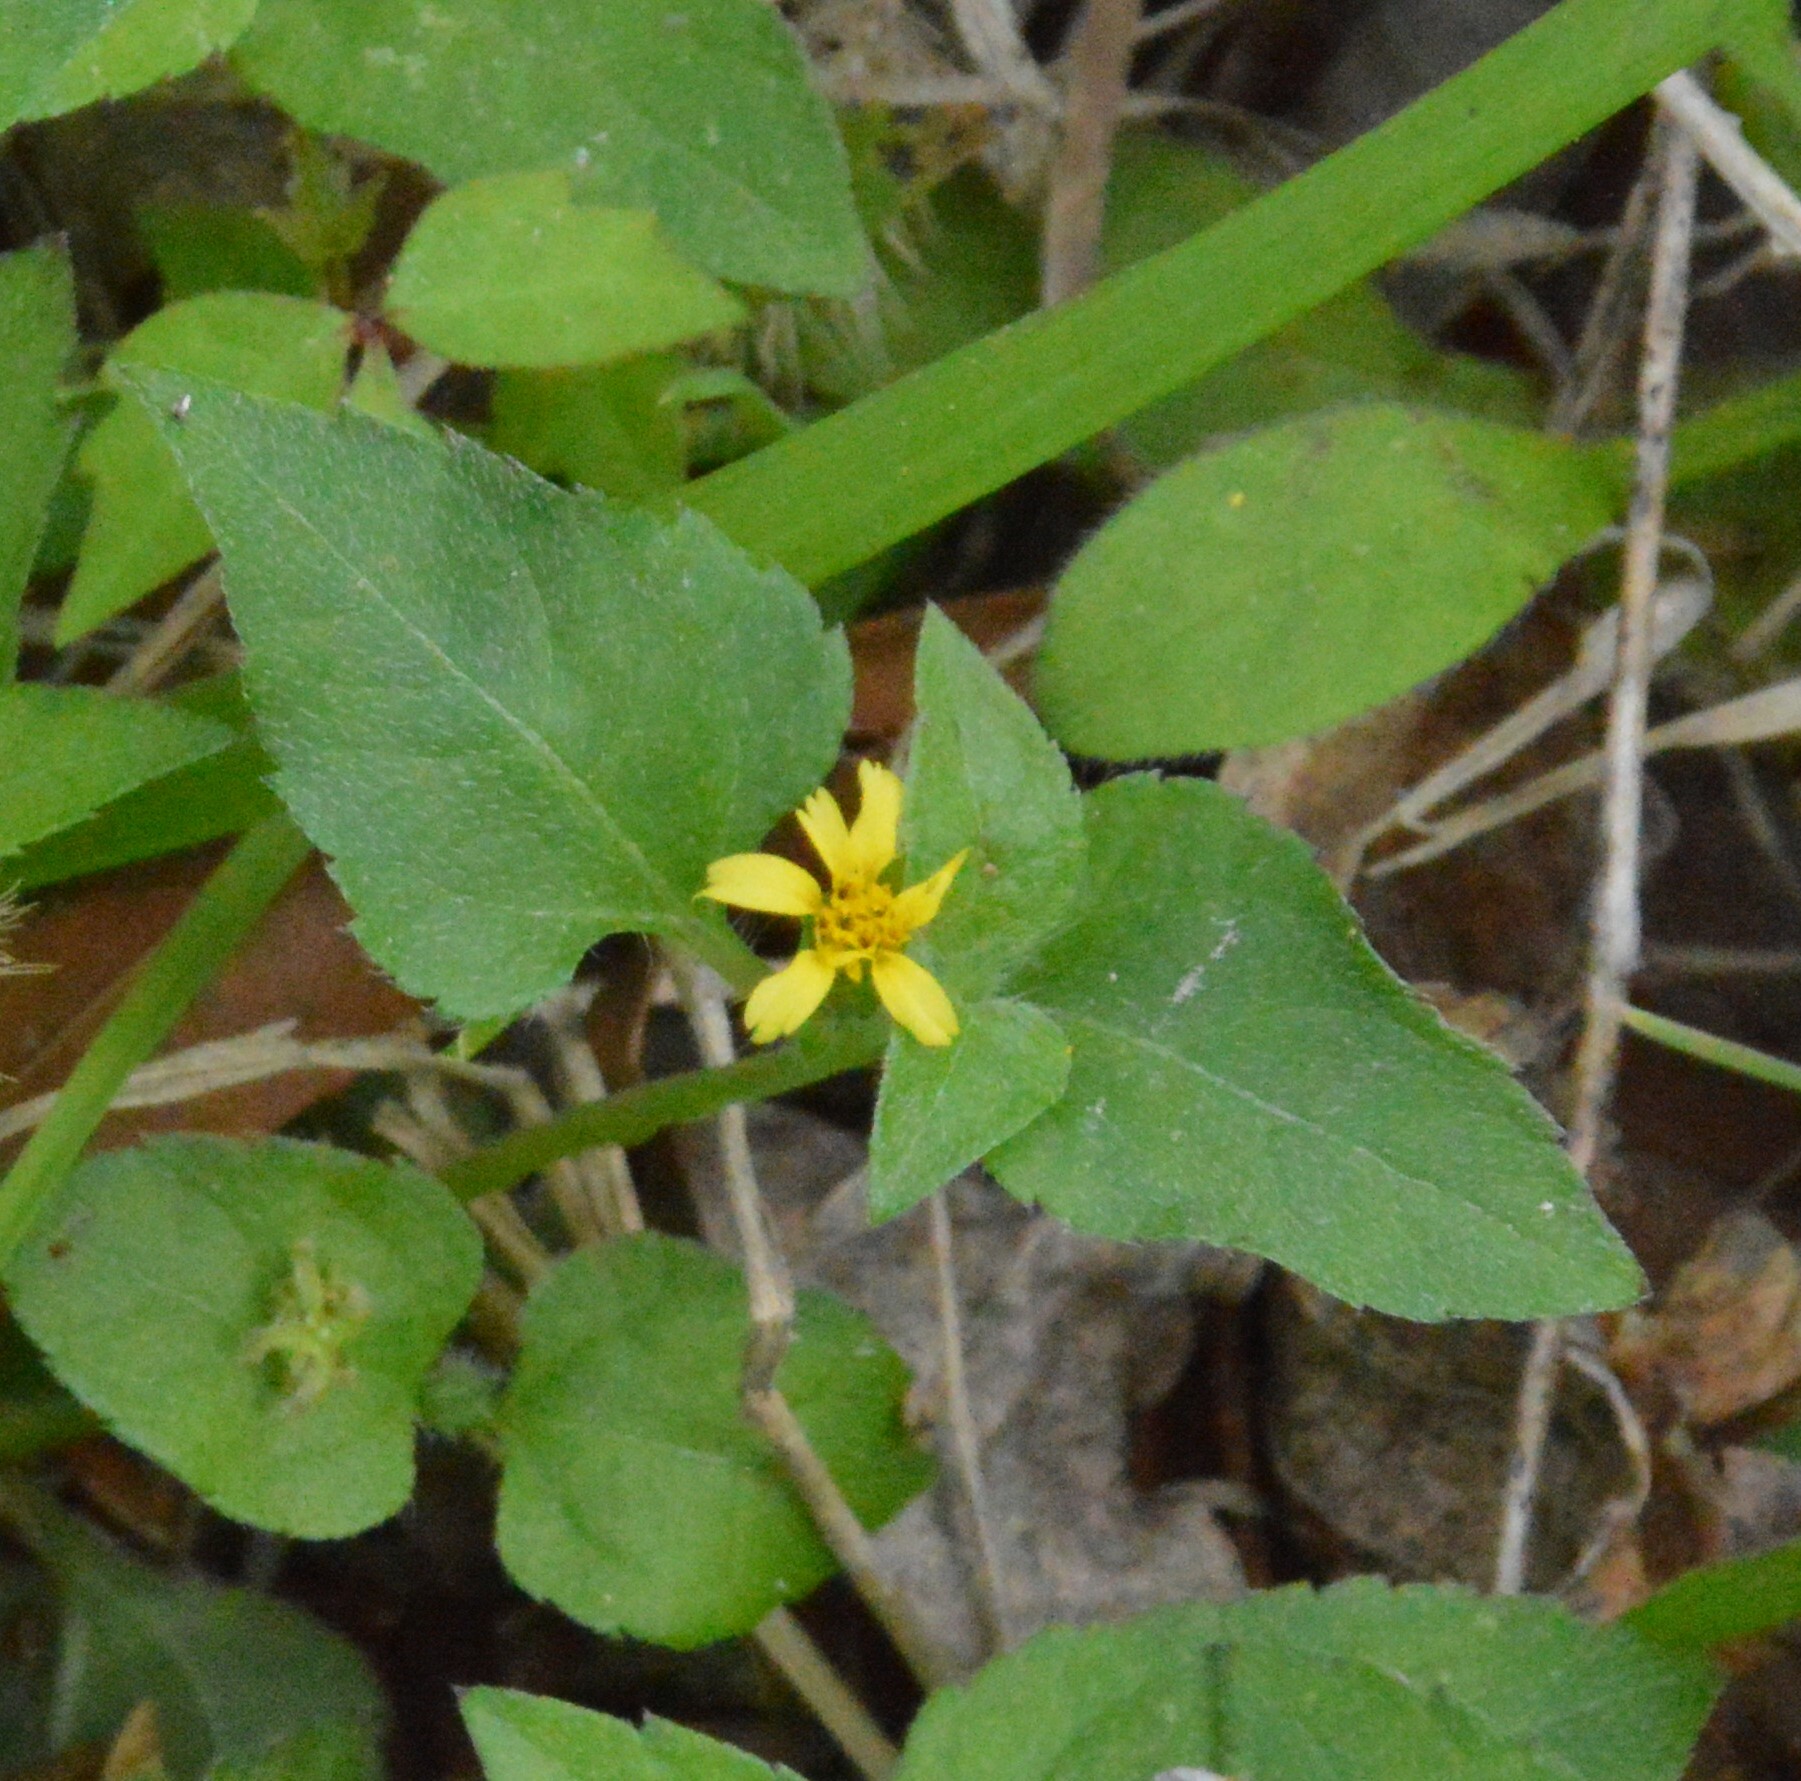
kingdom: Plantae
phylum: Tracheophyta
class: Magnoliopsida
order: Asterales
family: Asteraceae
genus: Calyptocarpus
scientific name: Calyptocarpus vialis
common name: Straggler daisy
